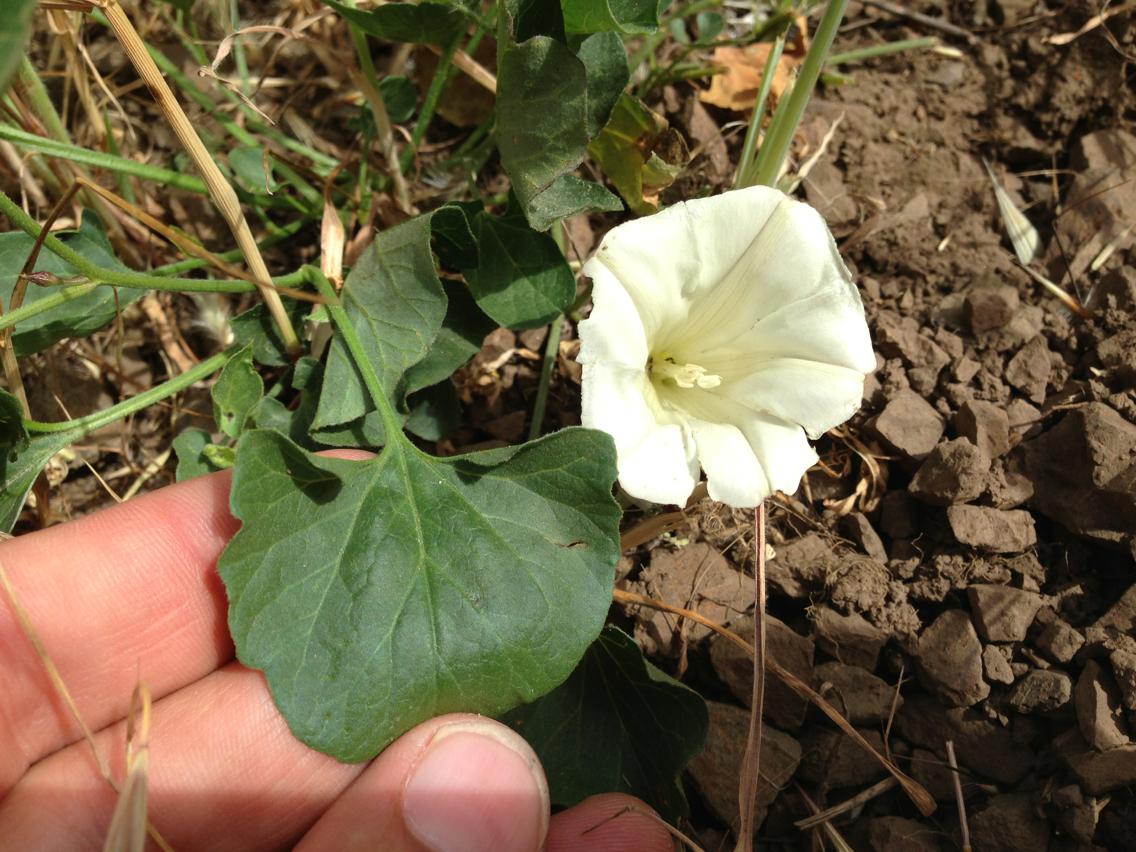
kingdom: Plantae
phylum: Tracheophyta
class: Magnoliopsida
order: Solanales
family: Convolvulaceae
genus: Calystegia
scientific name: Calystegia subacaulis
